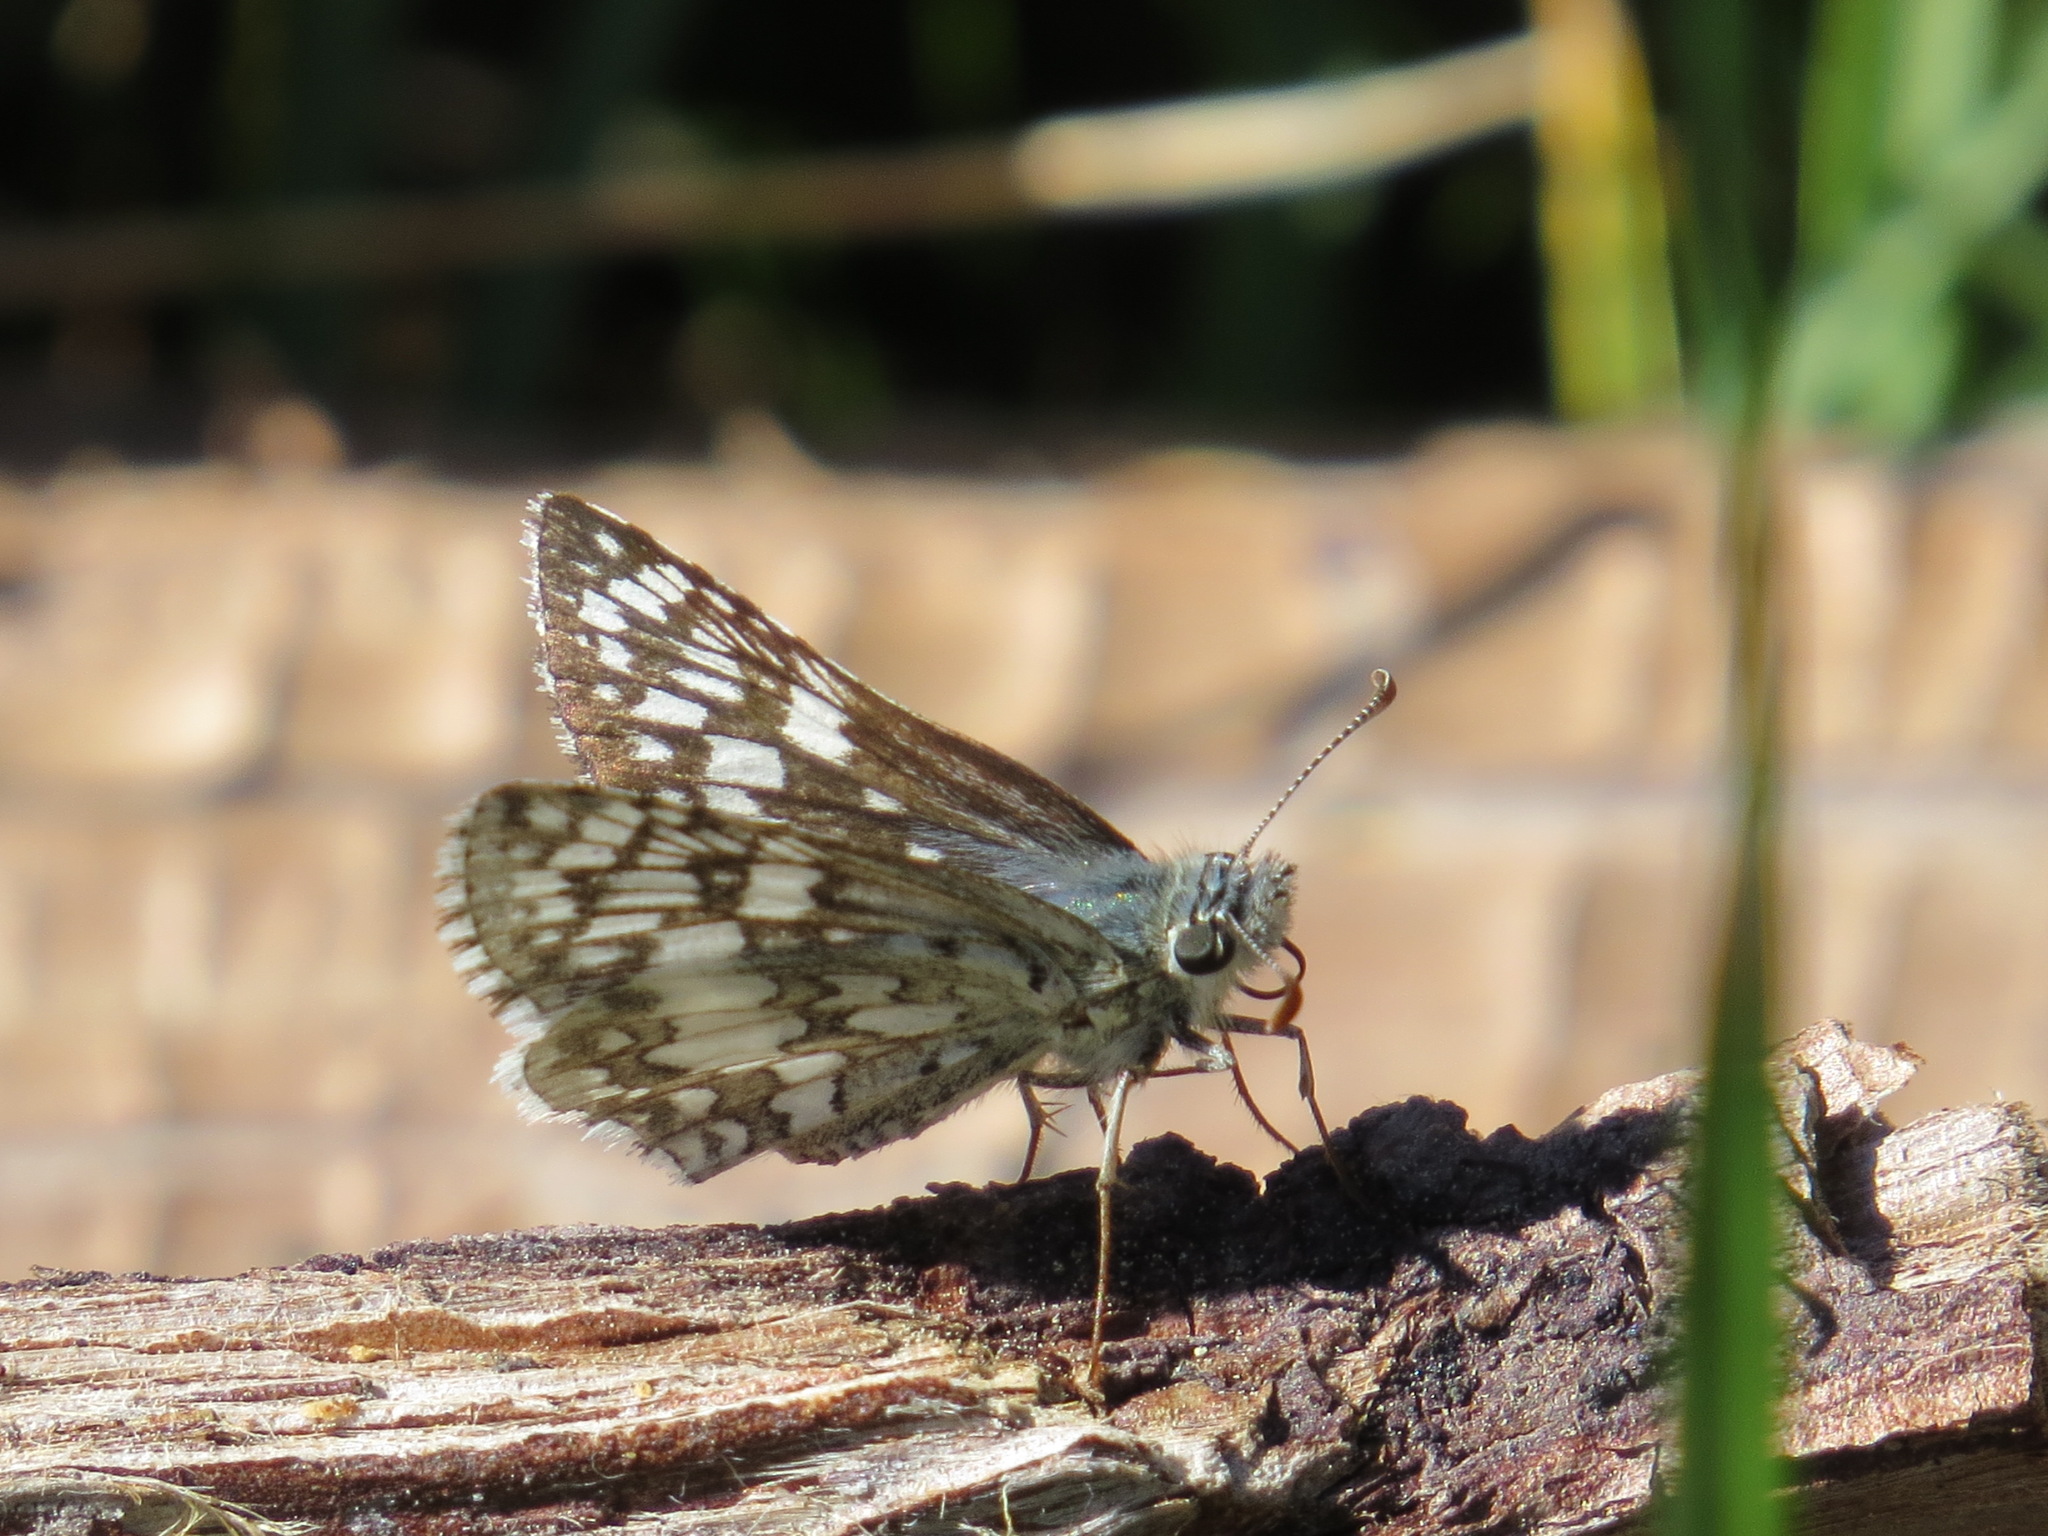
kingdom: Animalia
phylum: Arthropoda
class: Insecta
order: Lepidoptera
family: Hesperiidae
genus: Burnsius
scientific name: Burnsius communis
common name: Common checkered-skipper
